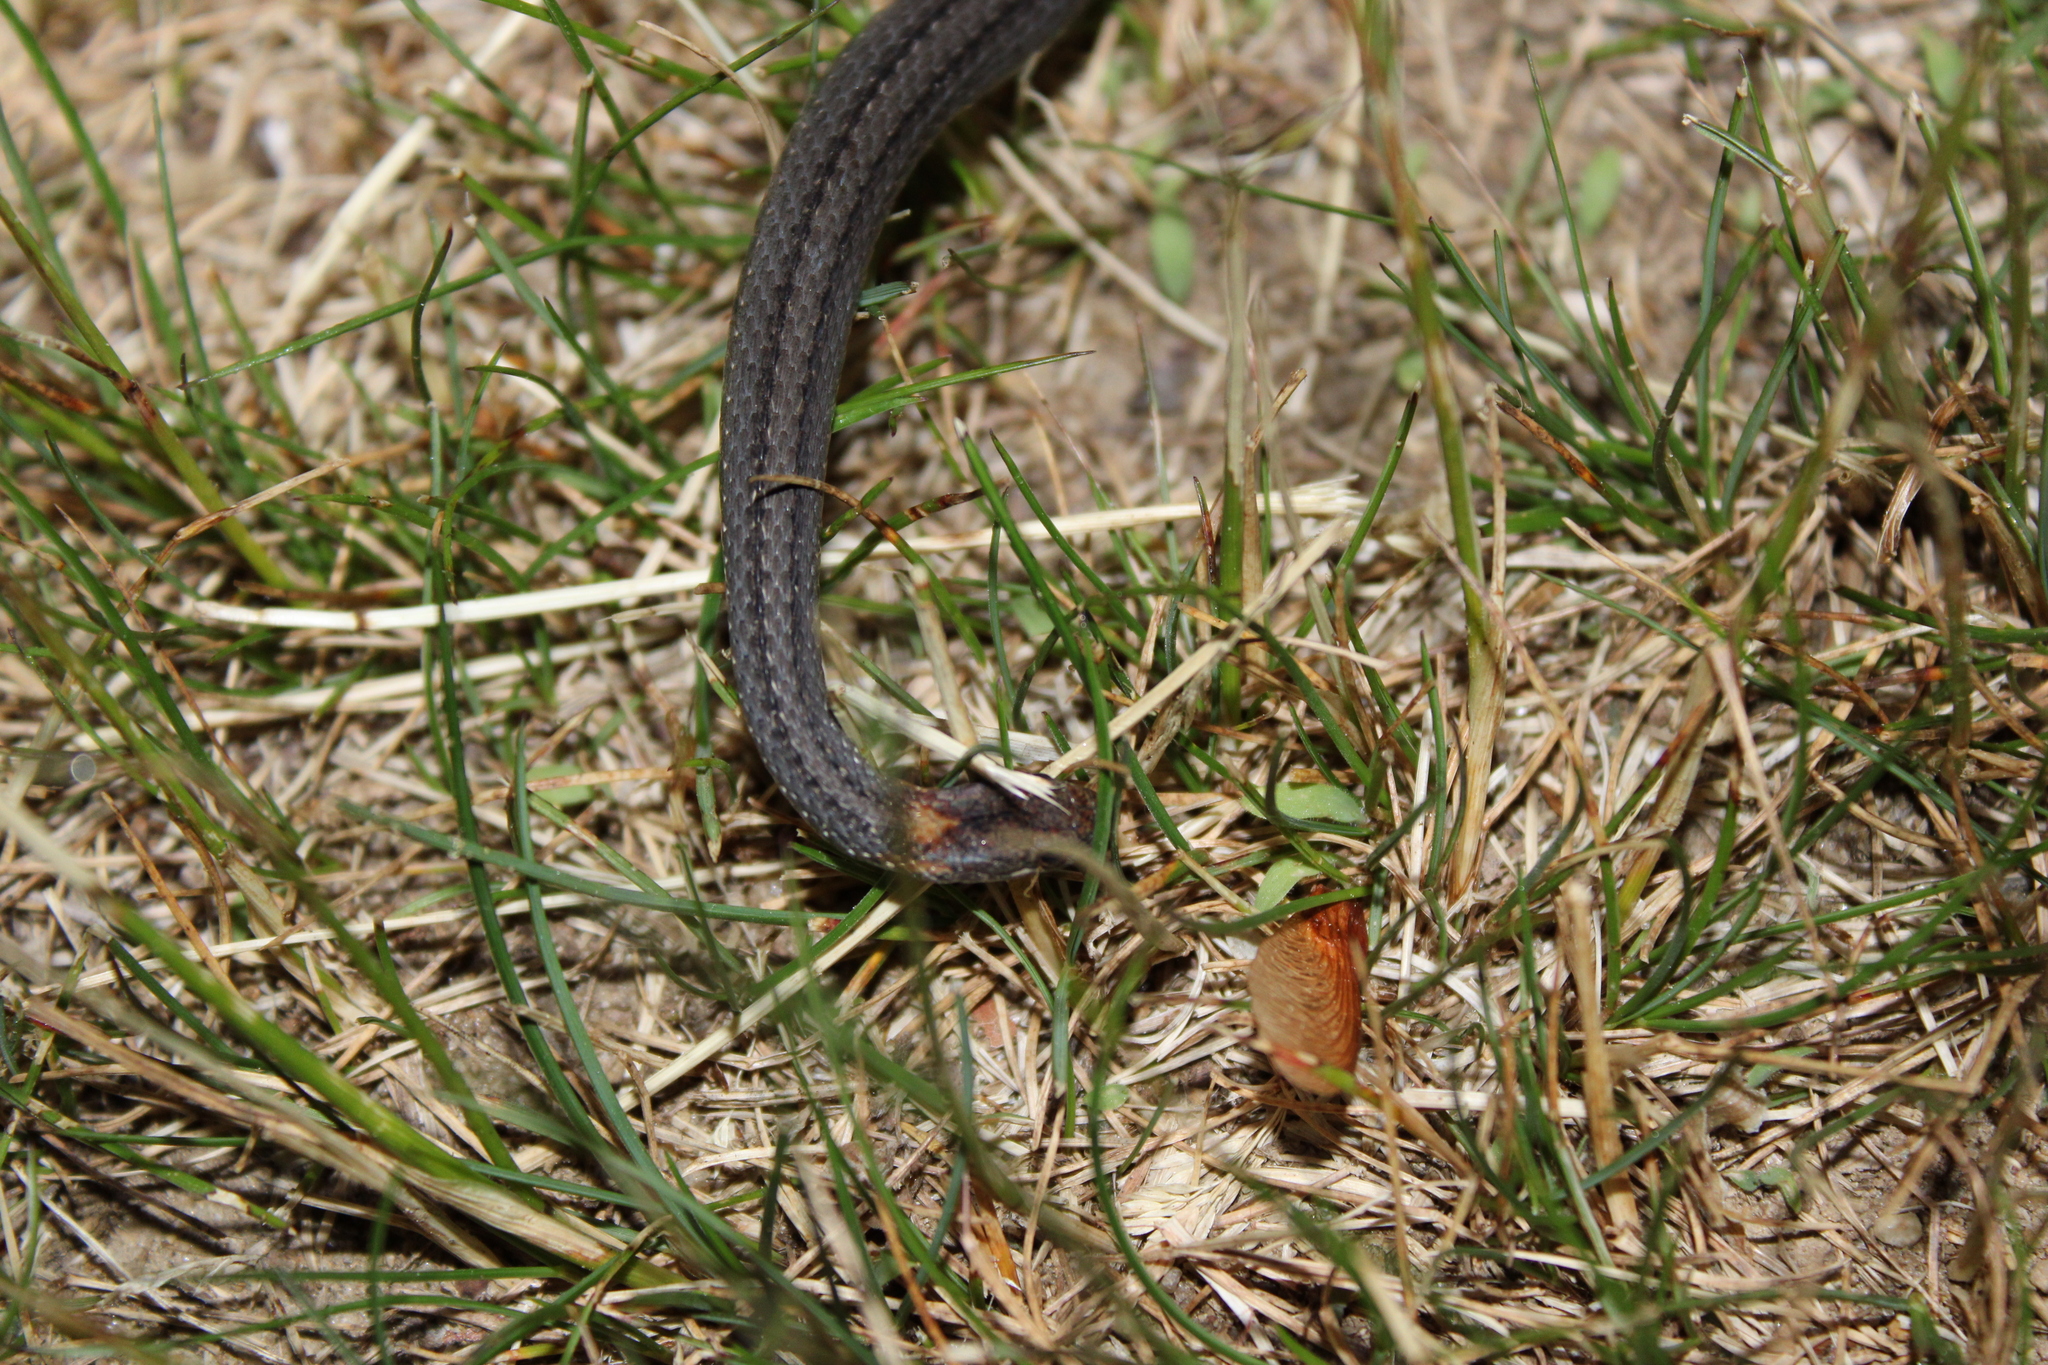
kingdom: Animalia
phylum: Chordata
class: Squamata
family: Colubridae
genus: Storeria
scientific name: Storeria occipitomaculata
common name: Redbelly snake
